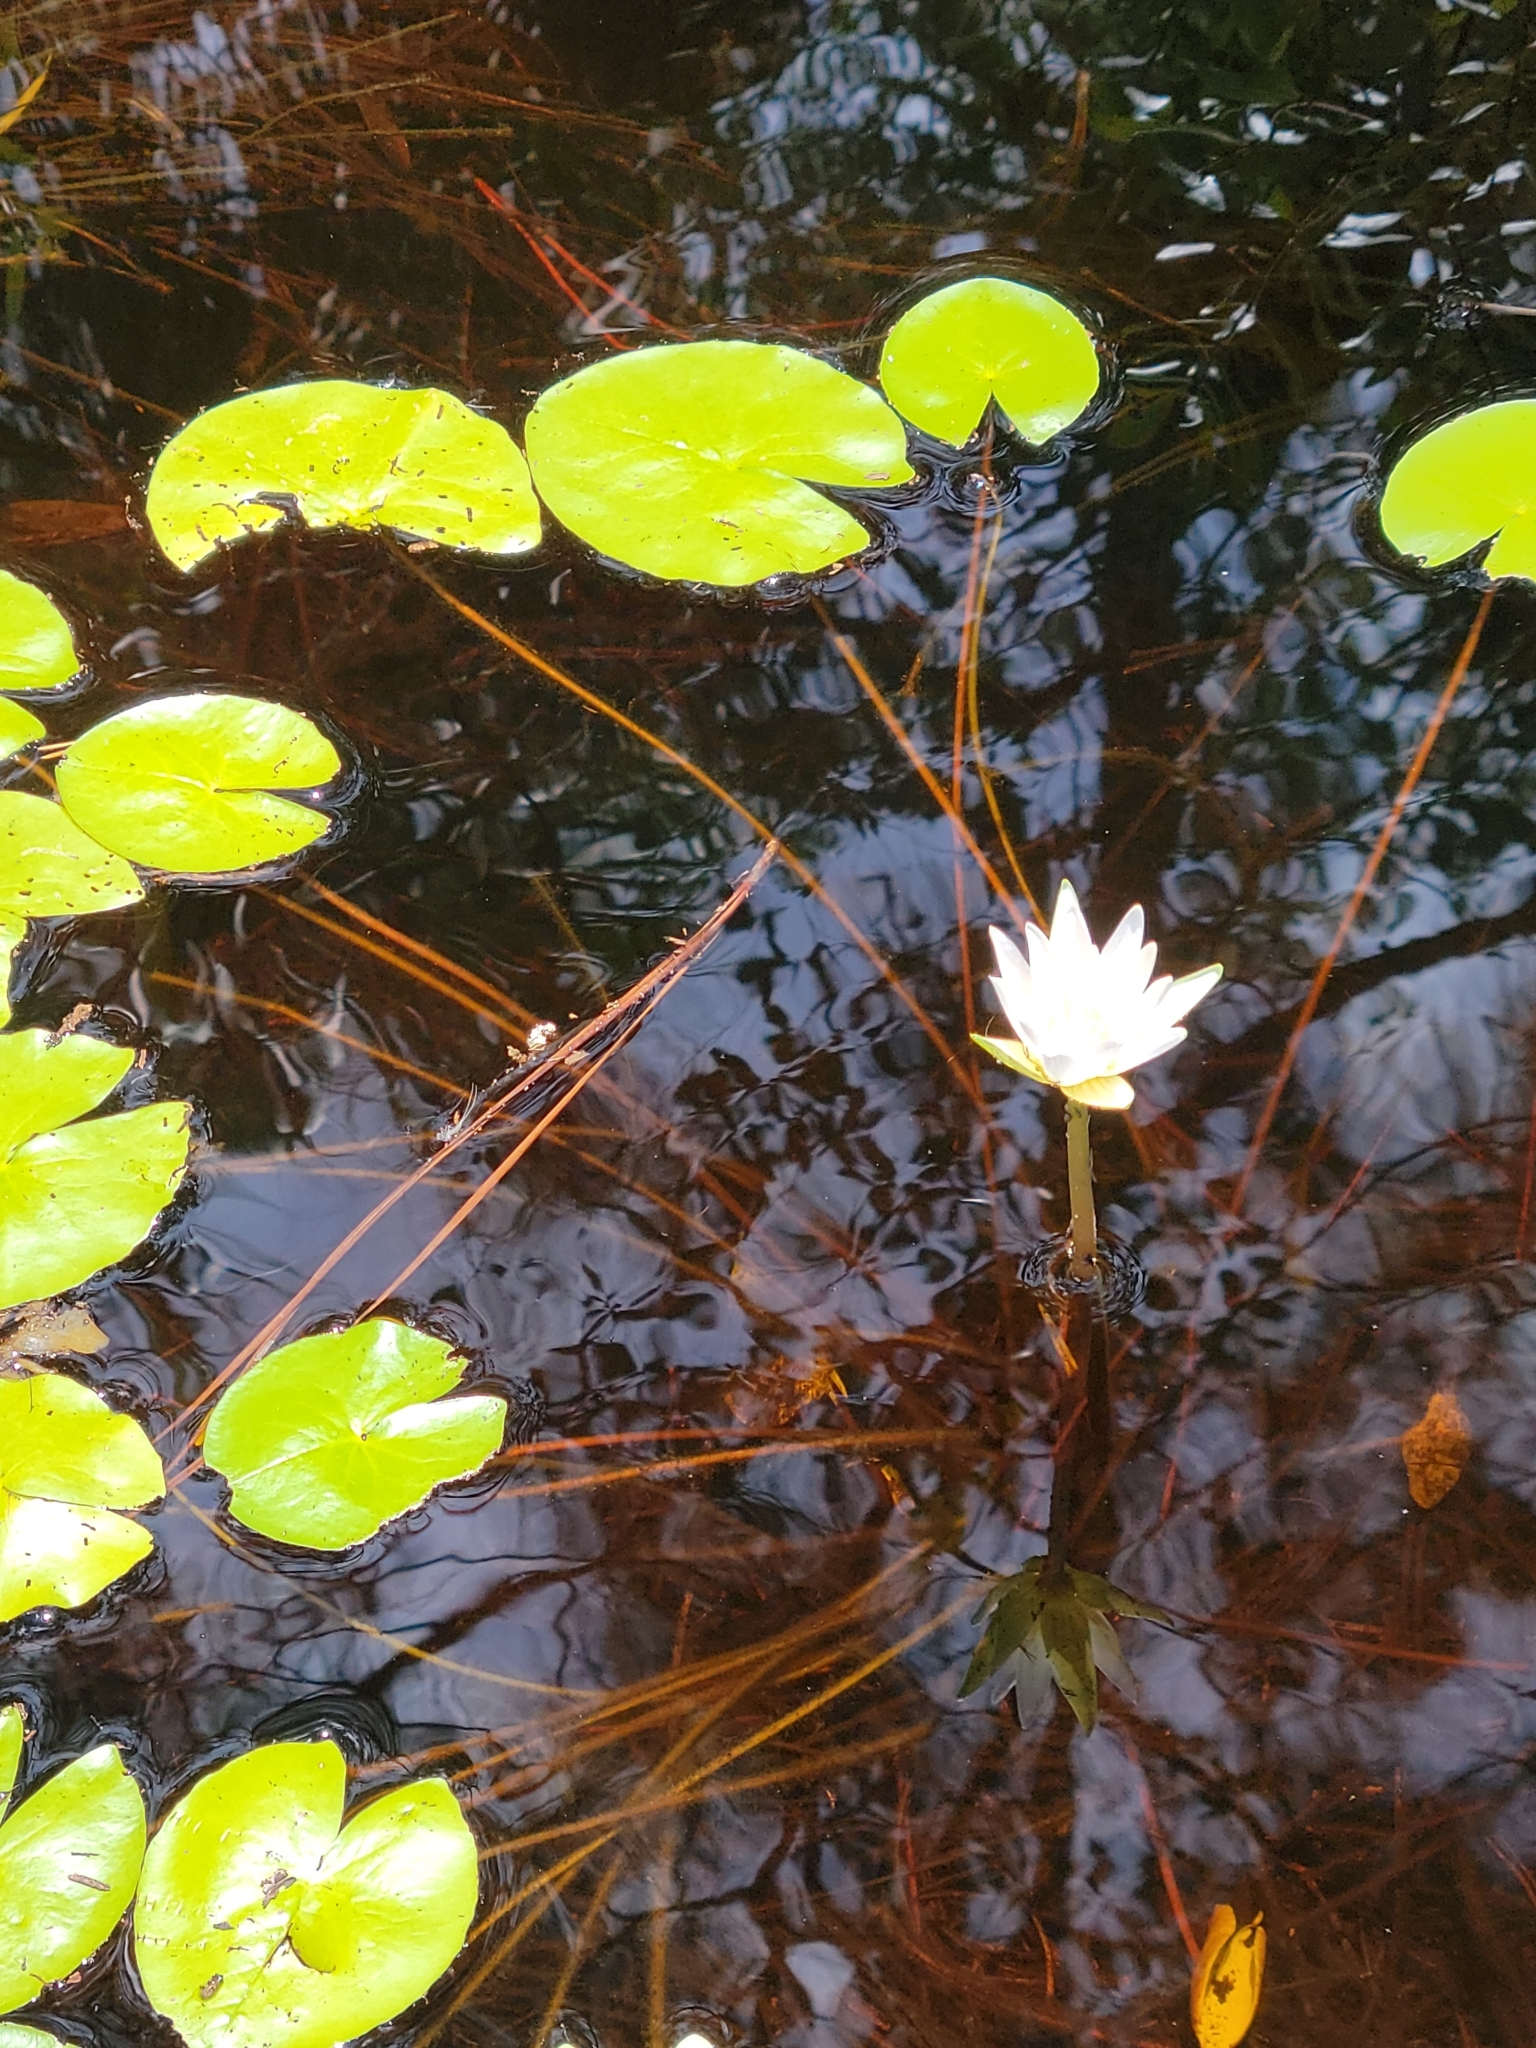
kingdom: Plantae
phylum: Tracheophyta
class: Magnoliopsida
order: Nymphaeales
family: Nymphaeaceae
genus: Nymphaea
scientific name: Nymphaea elegans
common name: Blue water-lily
